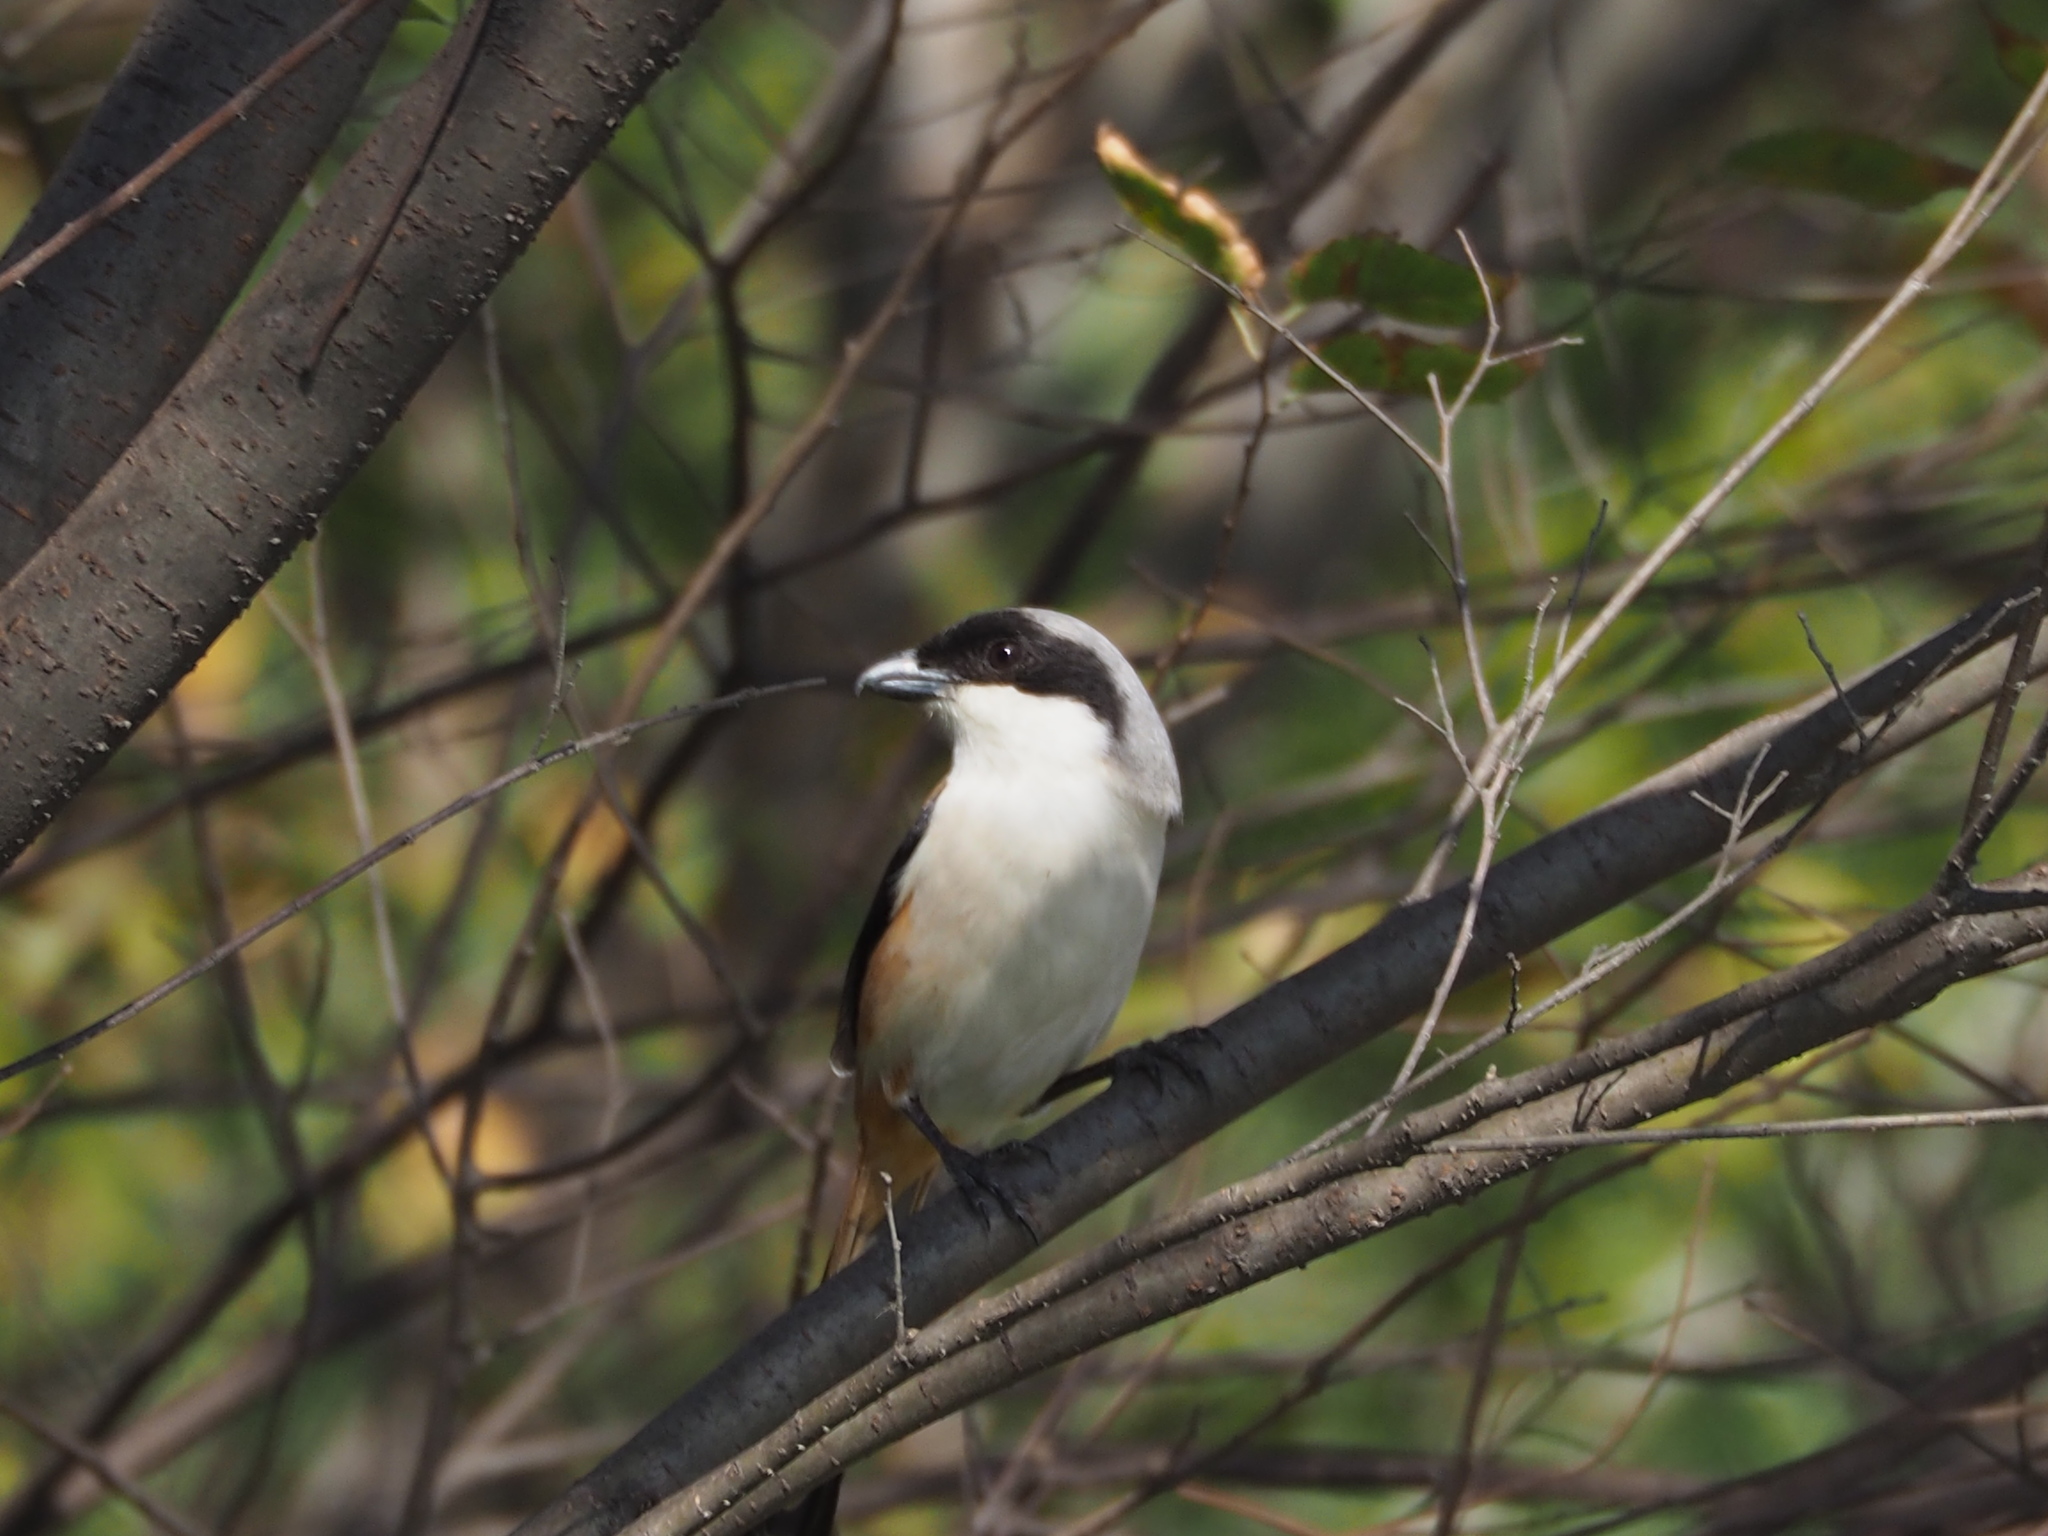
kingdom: Animalia
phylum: Chordata
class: Aves
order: Passeriformes
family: Laniidae
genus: Lanius
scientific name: Lanius schach
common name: Long-tailed shrike
